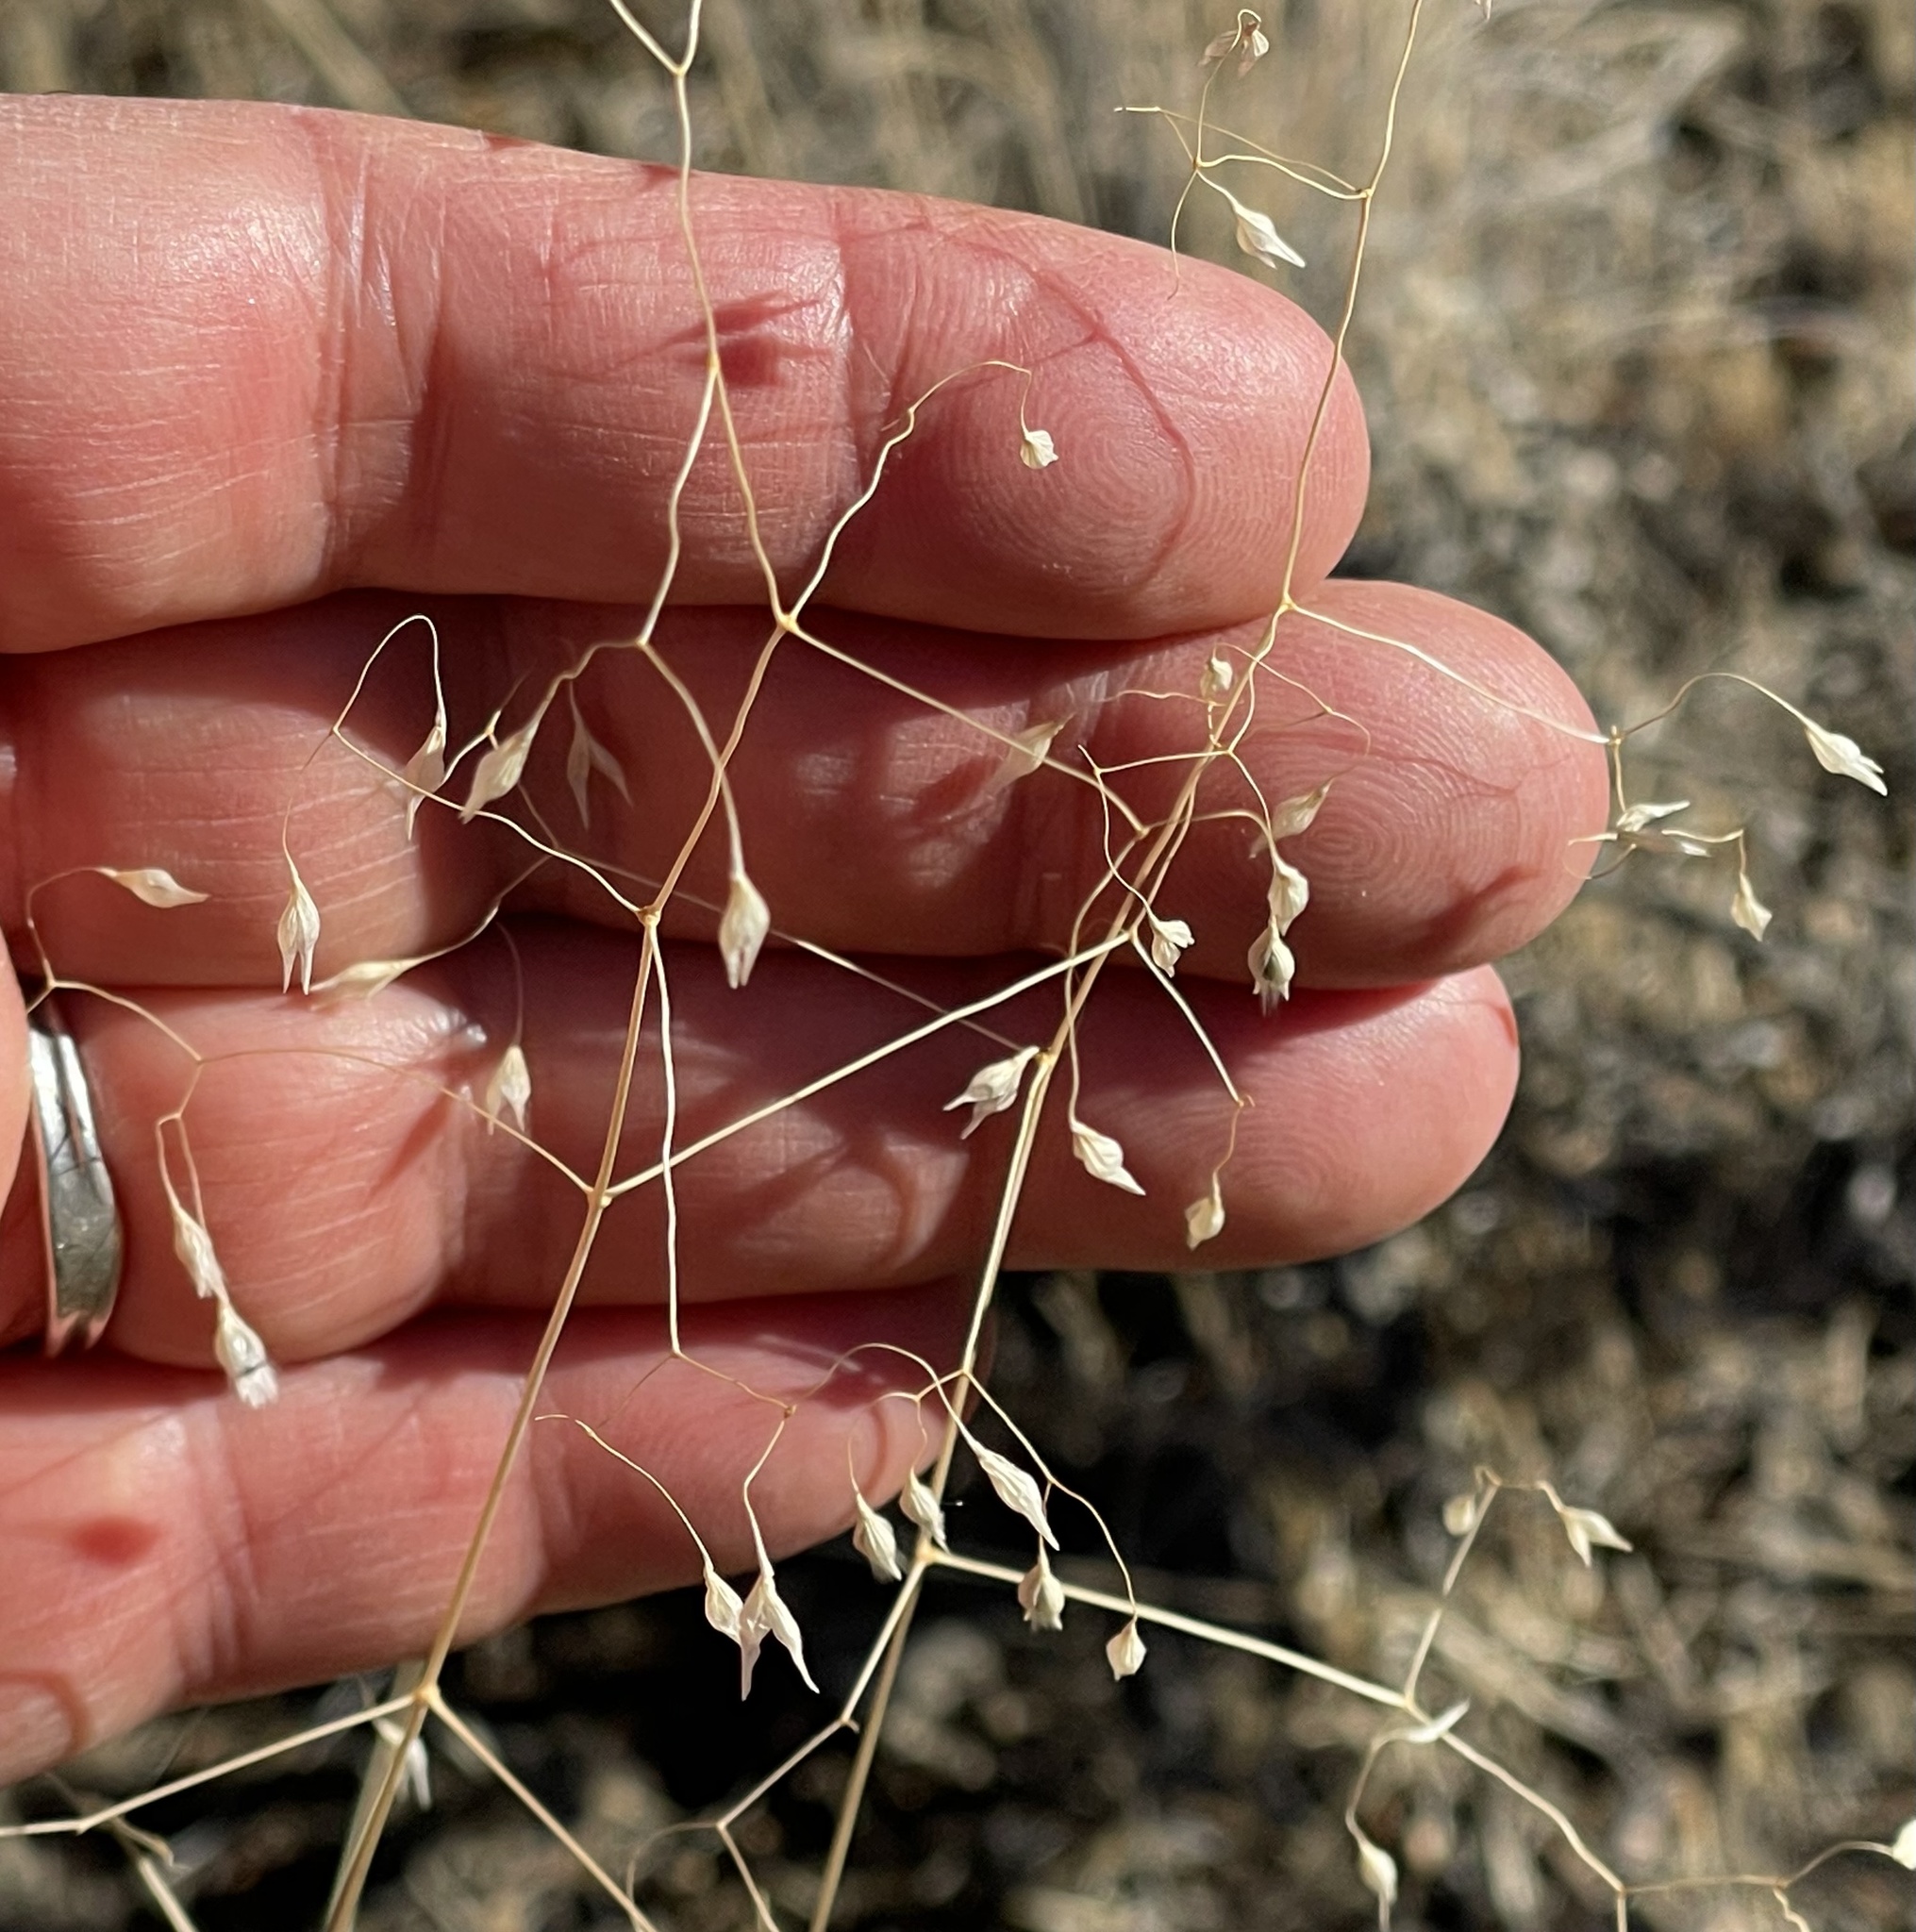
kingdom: Plantae
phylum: Tracheophyta
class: Liliopsida
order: Poales
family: Poaceae
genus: Eriocoma
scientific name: Eriocoma hymenoides
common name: Indian mountain ricegrass
